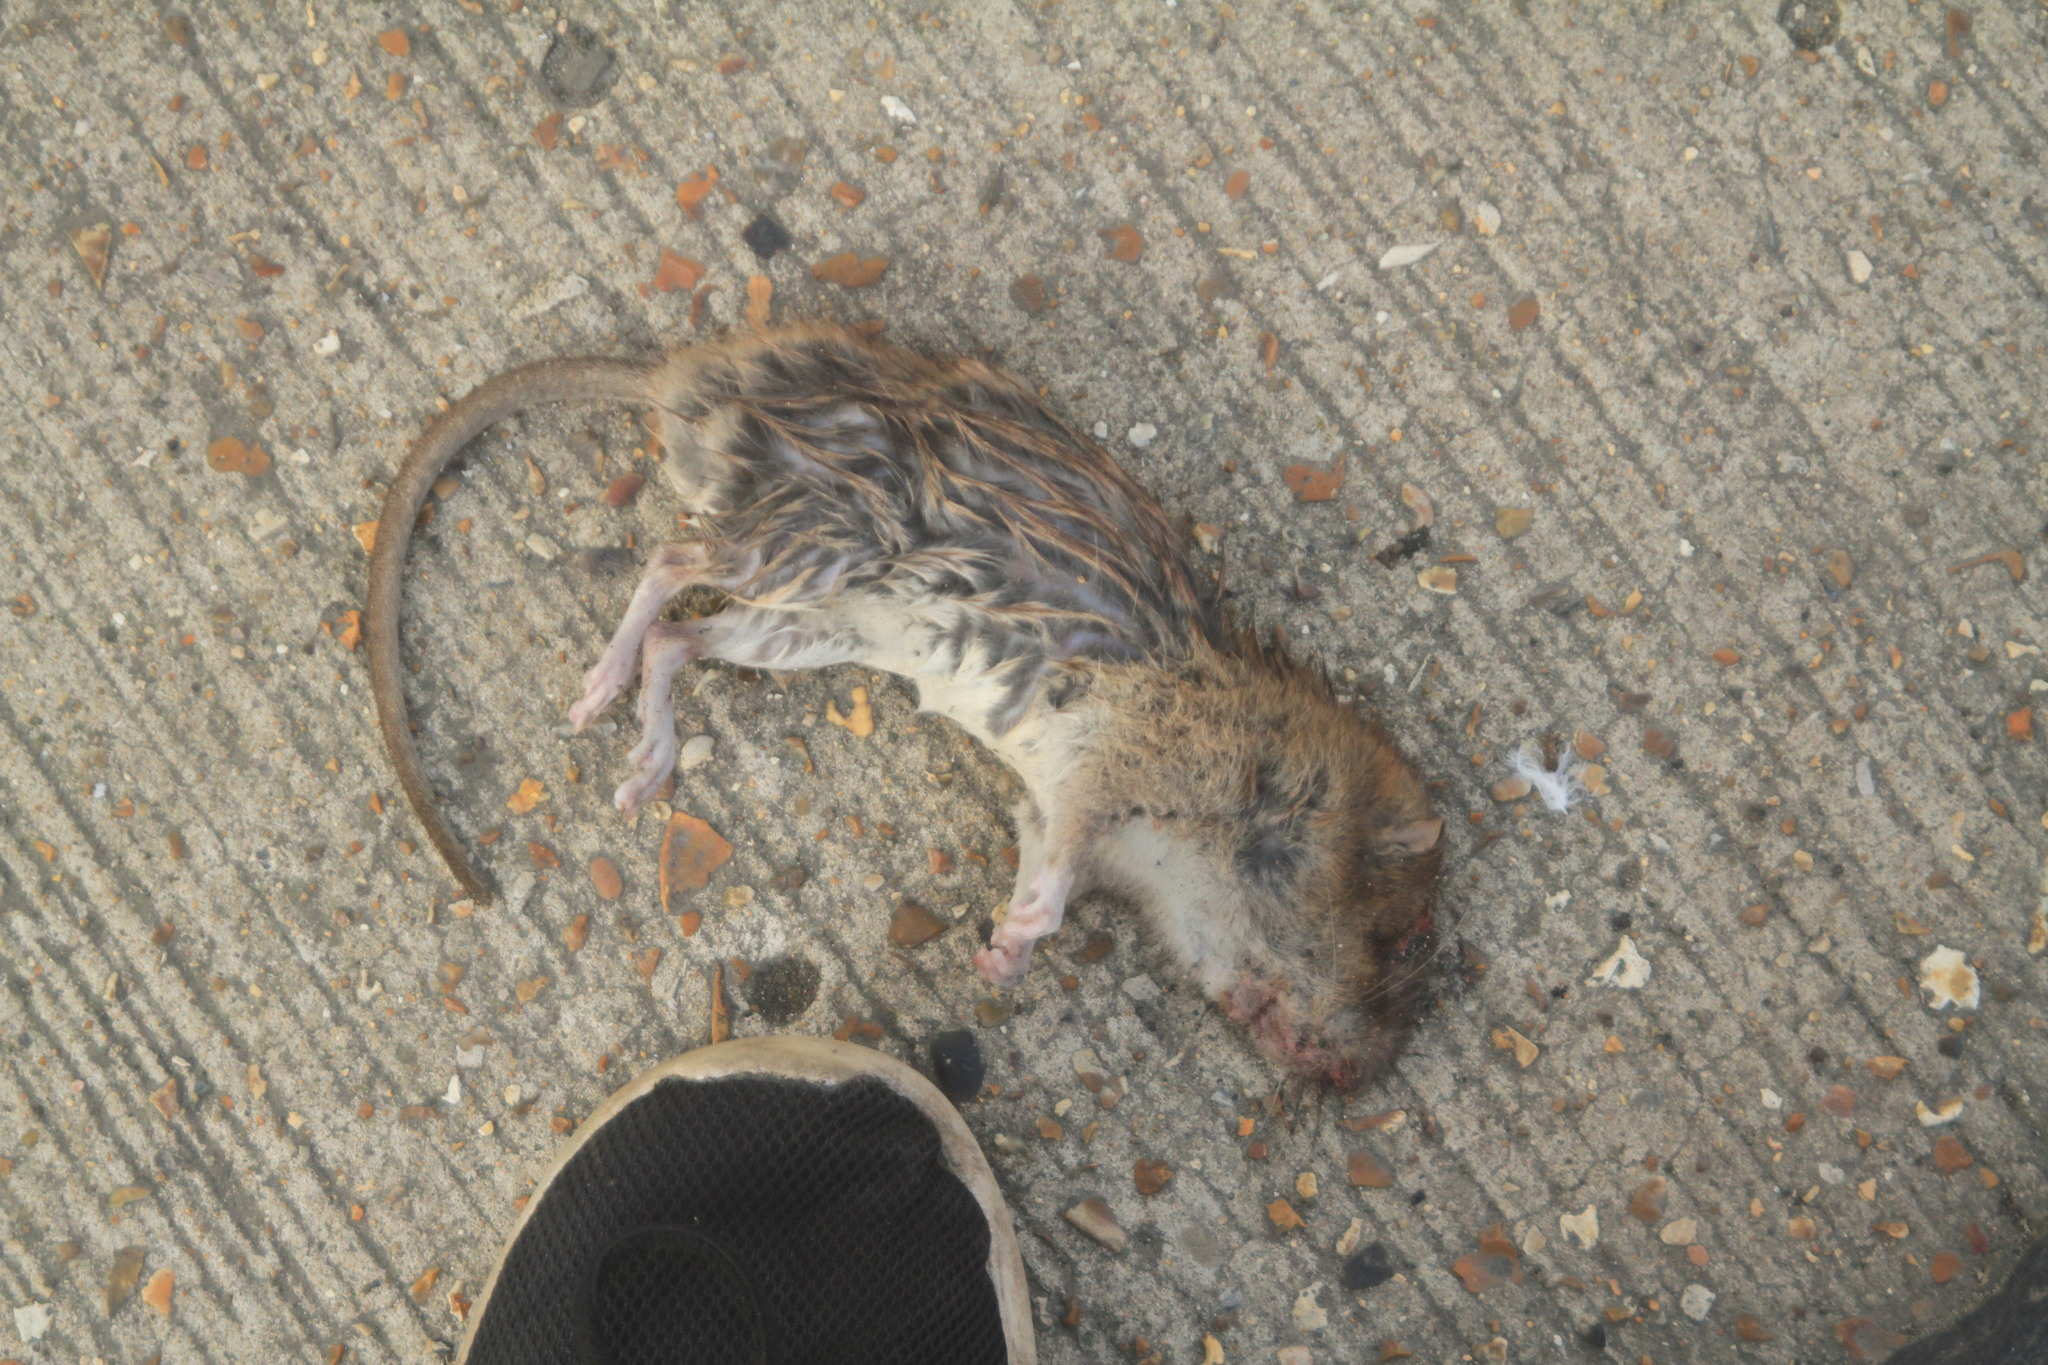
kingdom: Animalia
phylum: Chordata
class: Mammalia
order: Rodentia
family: Muridae
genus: Rattus
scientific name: Rattus norvegicus
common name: Brown rat
